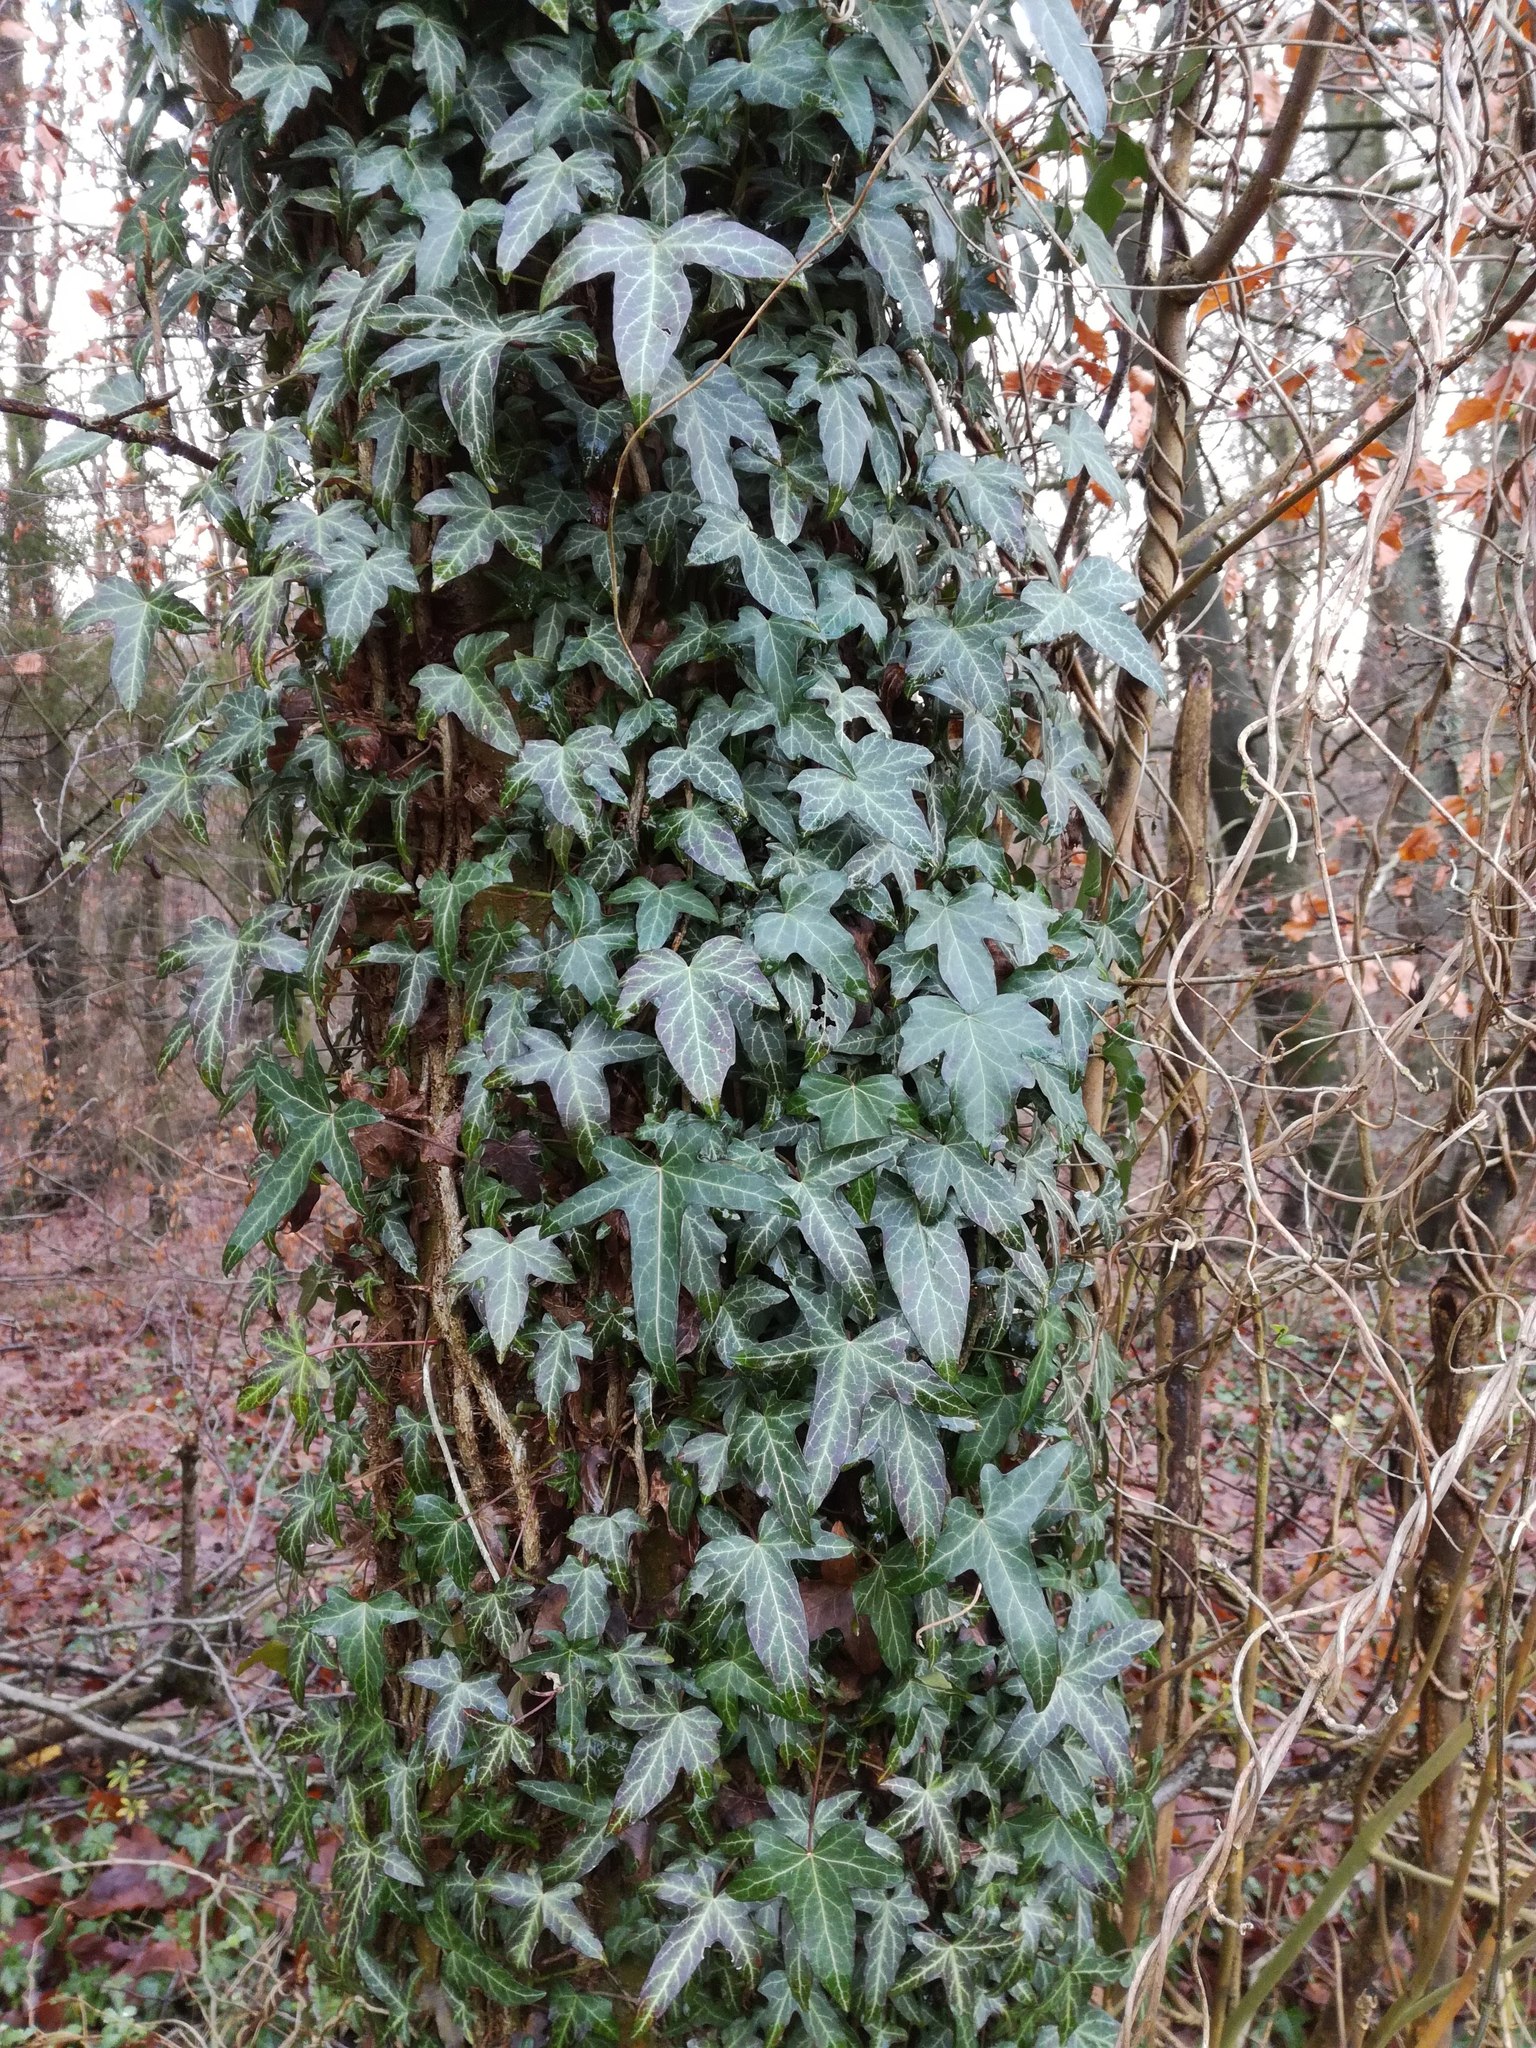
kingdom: Plantae
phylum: Tracheophyta
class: Magnoliopsida
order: Apiales
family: Araliaceae
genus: Hedera
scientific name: Hedera helix
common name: Ivy
